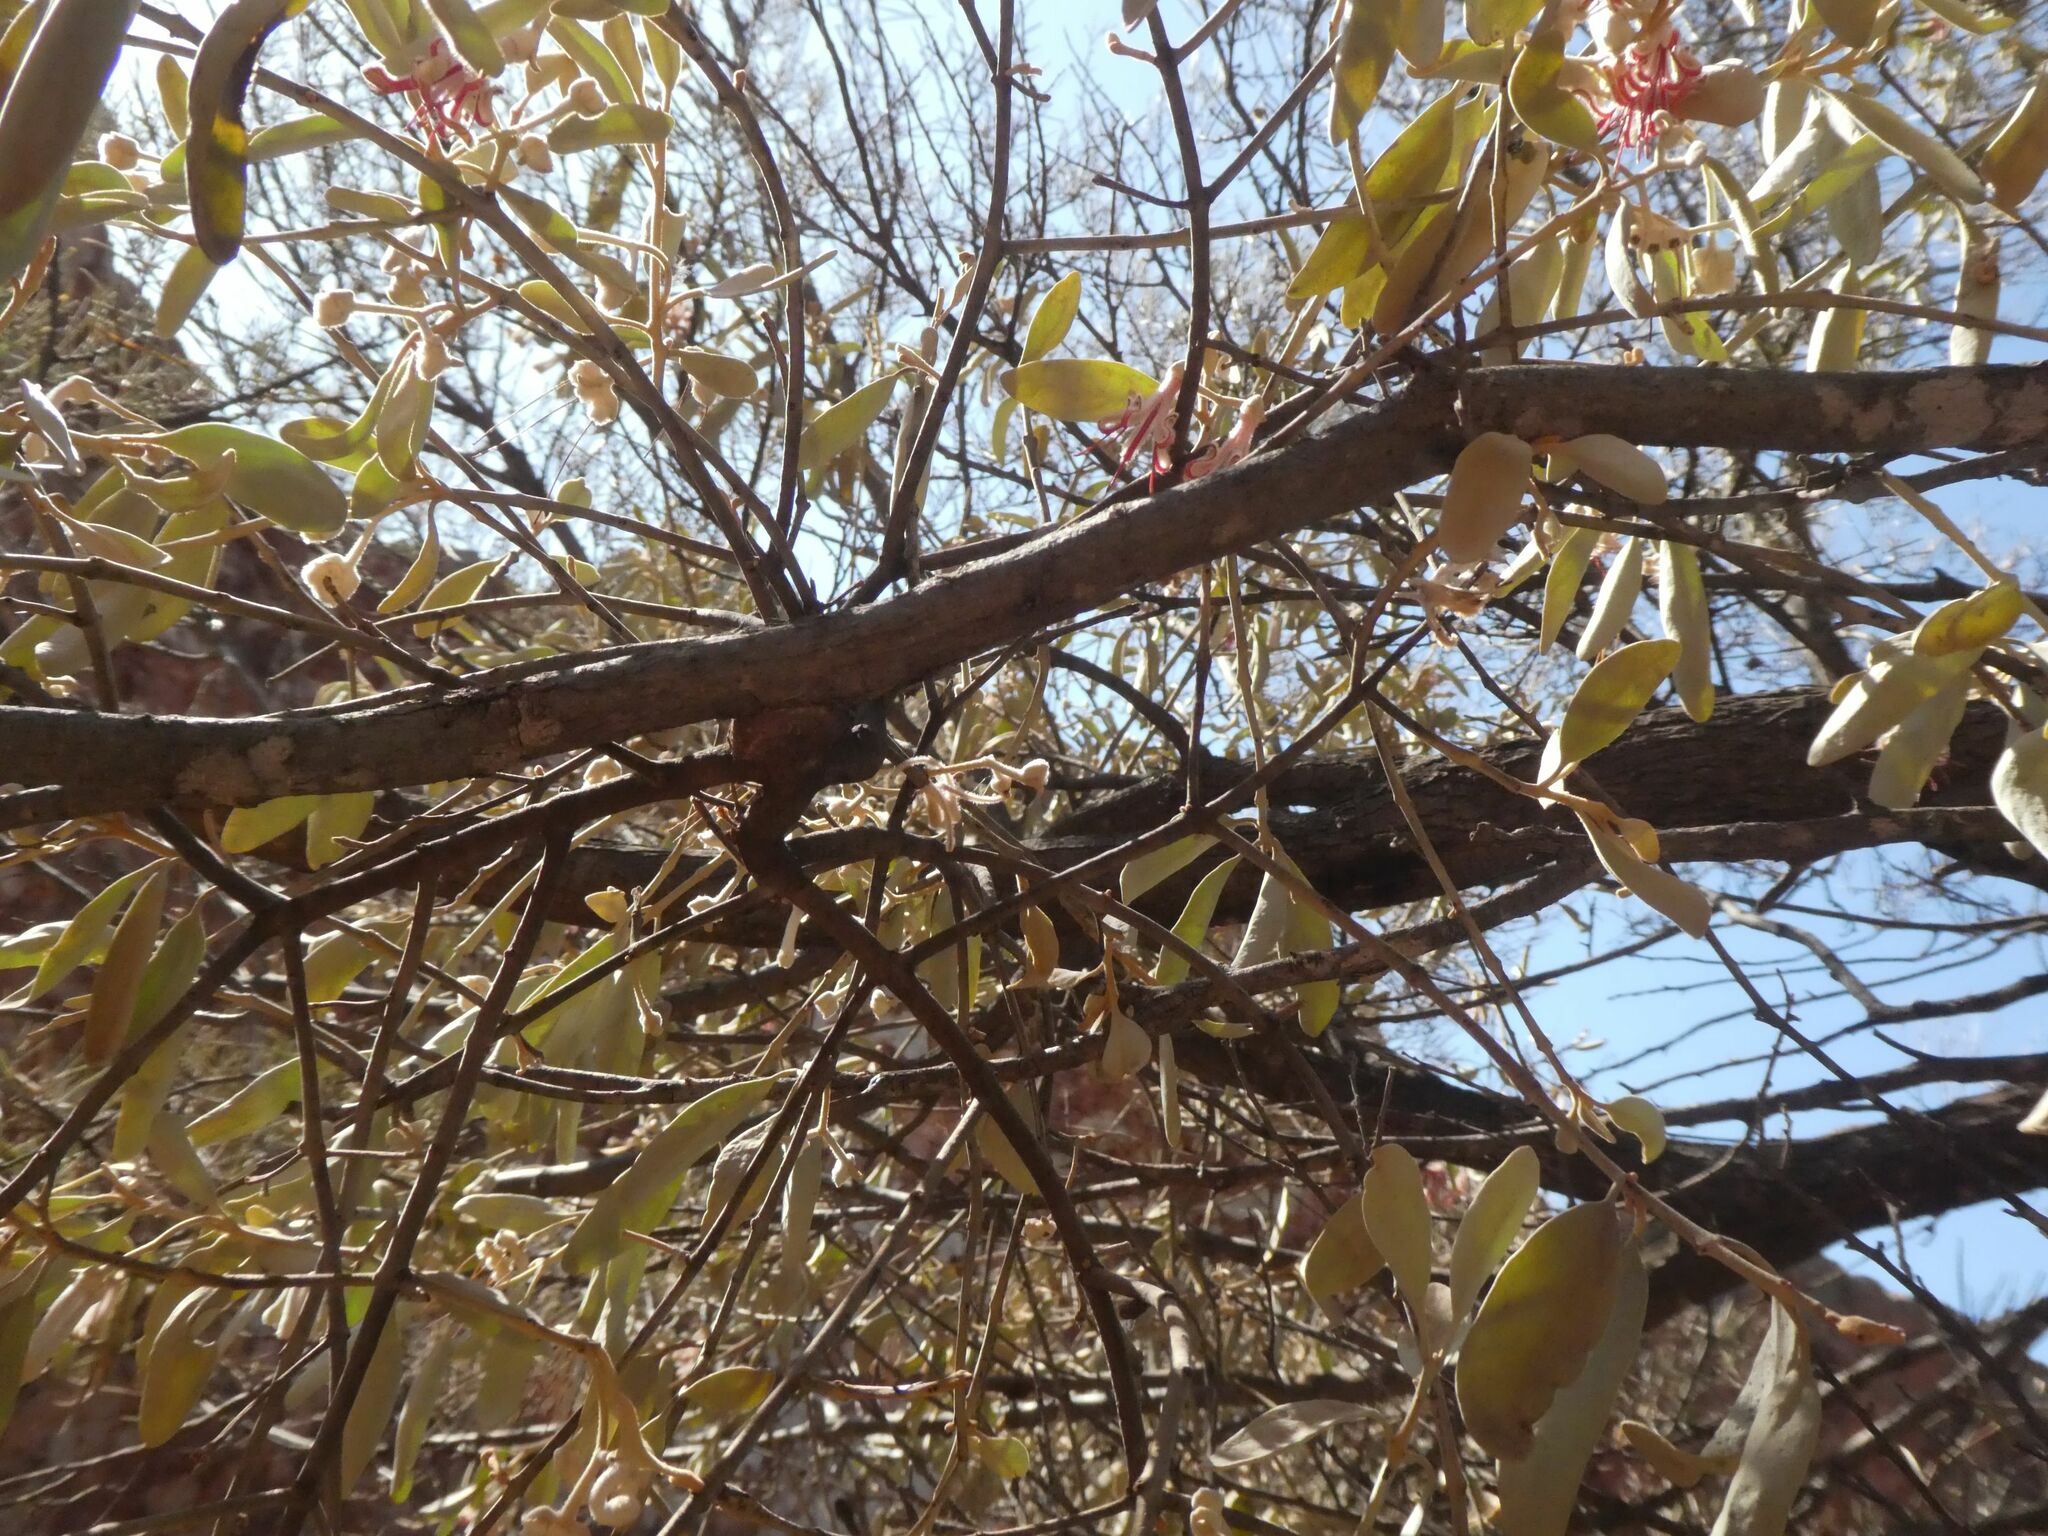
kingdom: Plantae
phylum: Tracheophyta
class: Magnoliopsida
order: Santalales
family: Loranthaceae
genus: Amyema
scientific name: Amyema nestor
